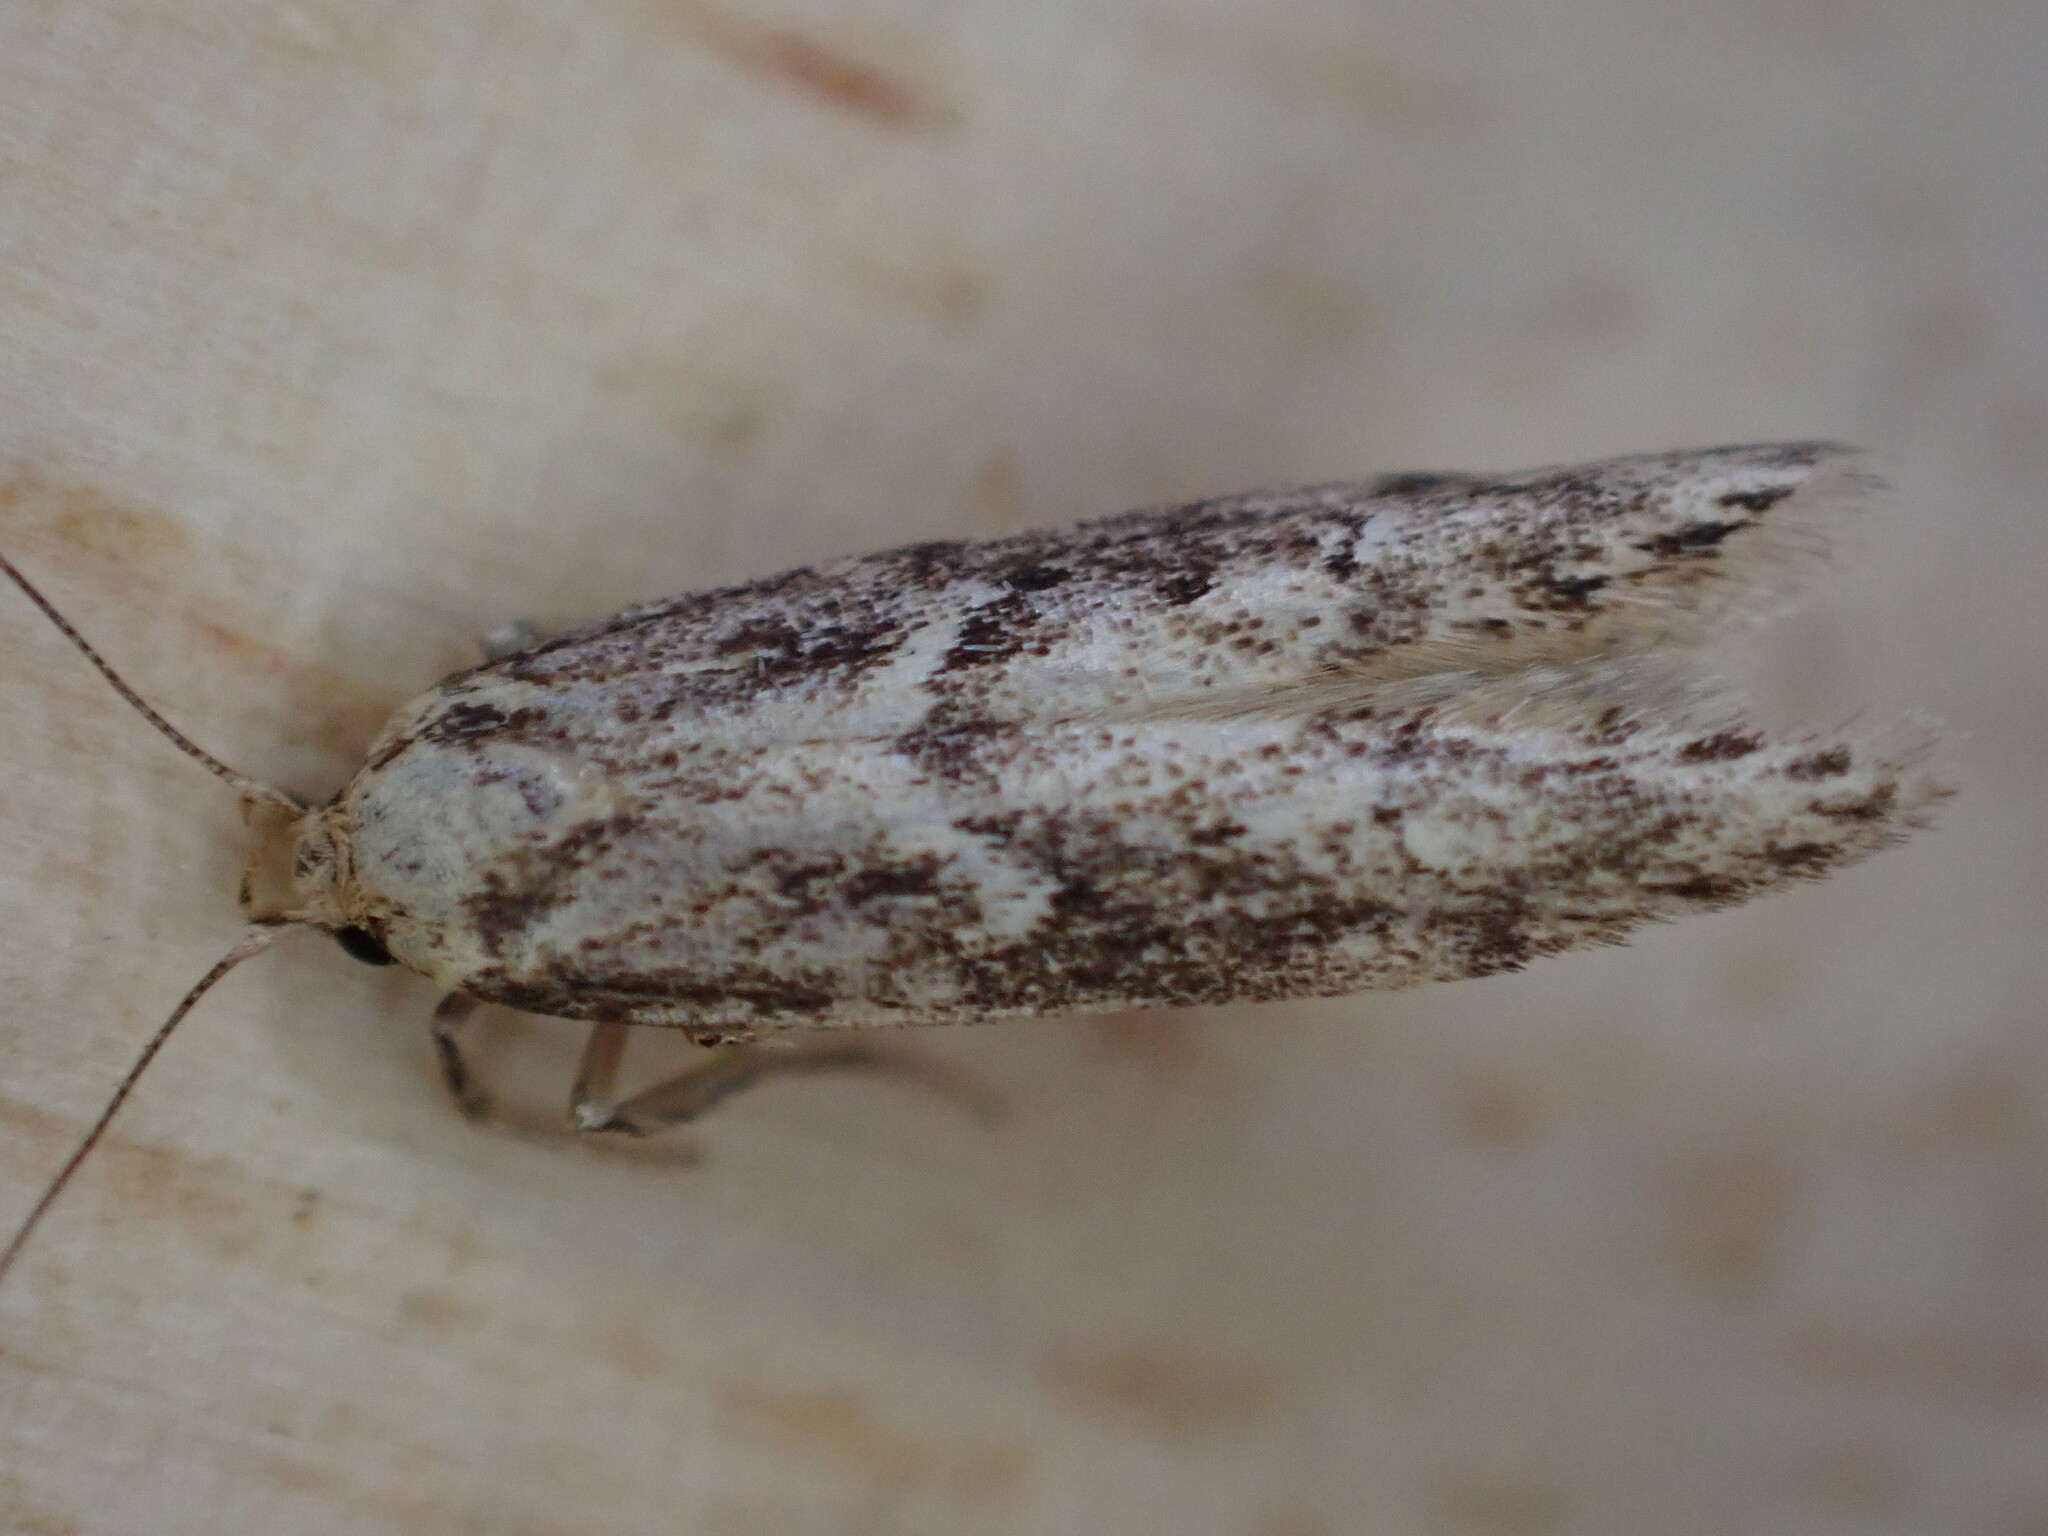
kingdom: Animalia
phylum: Arthropoda
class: Insecta
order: Lepidoptera
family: Blastobasidae
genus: Blastobasis
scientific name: Blastobasis adustella
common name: Dingy dowd
